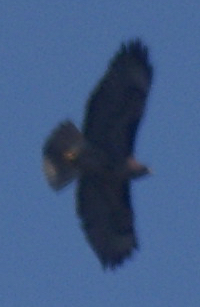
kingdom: Animalia
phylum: Chordata
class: Aves
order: Accipitriformes
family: Accipitridae
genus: Buteo
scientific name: Buteo jamaicensis
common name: Red-tailed hawk
